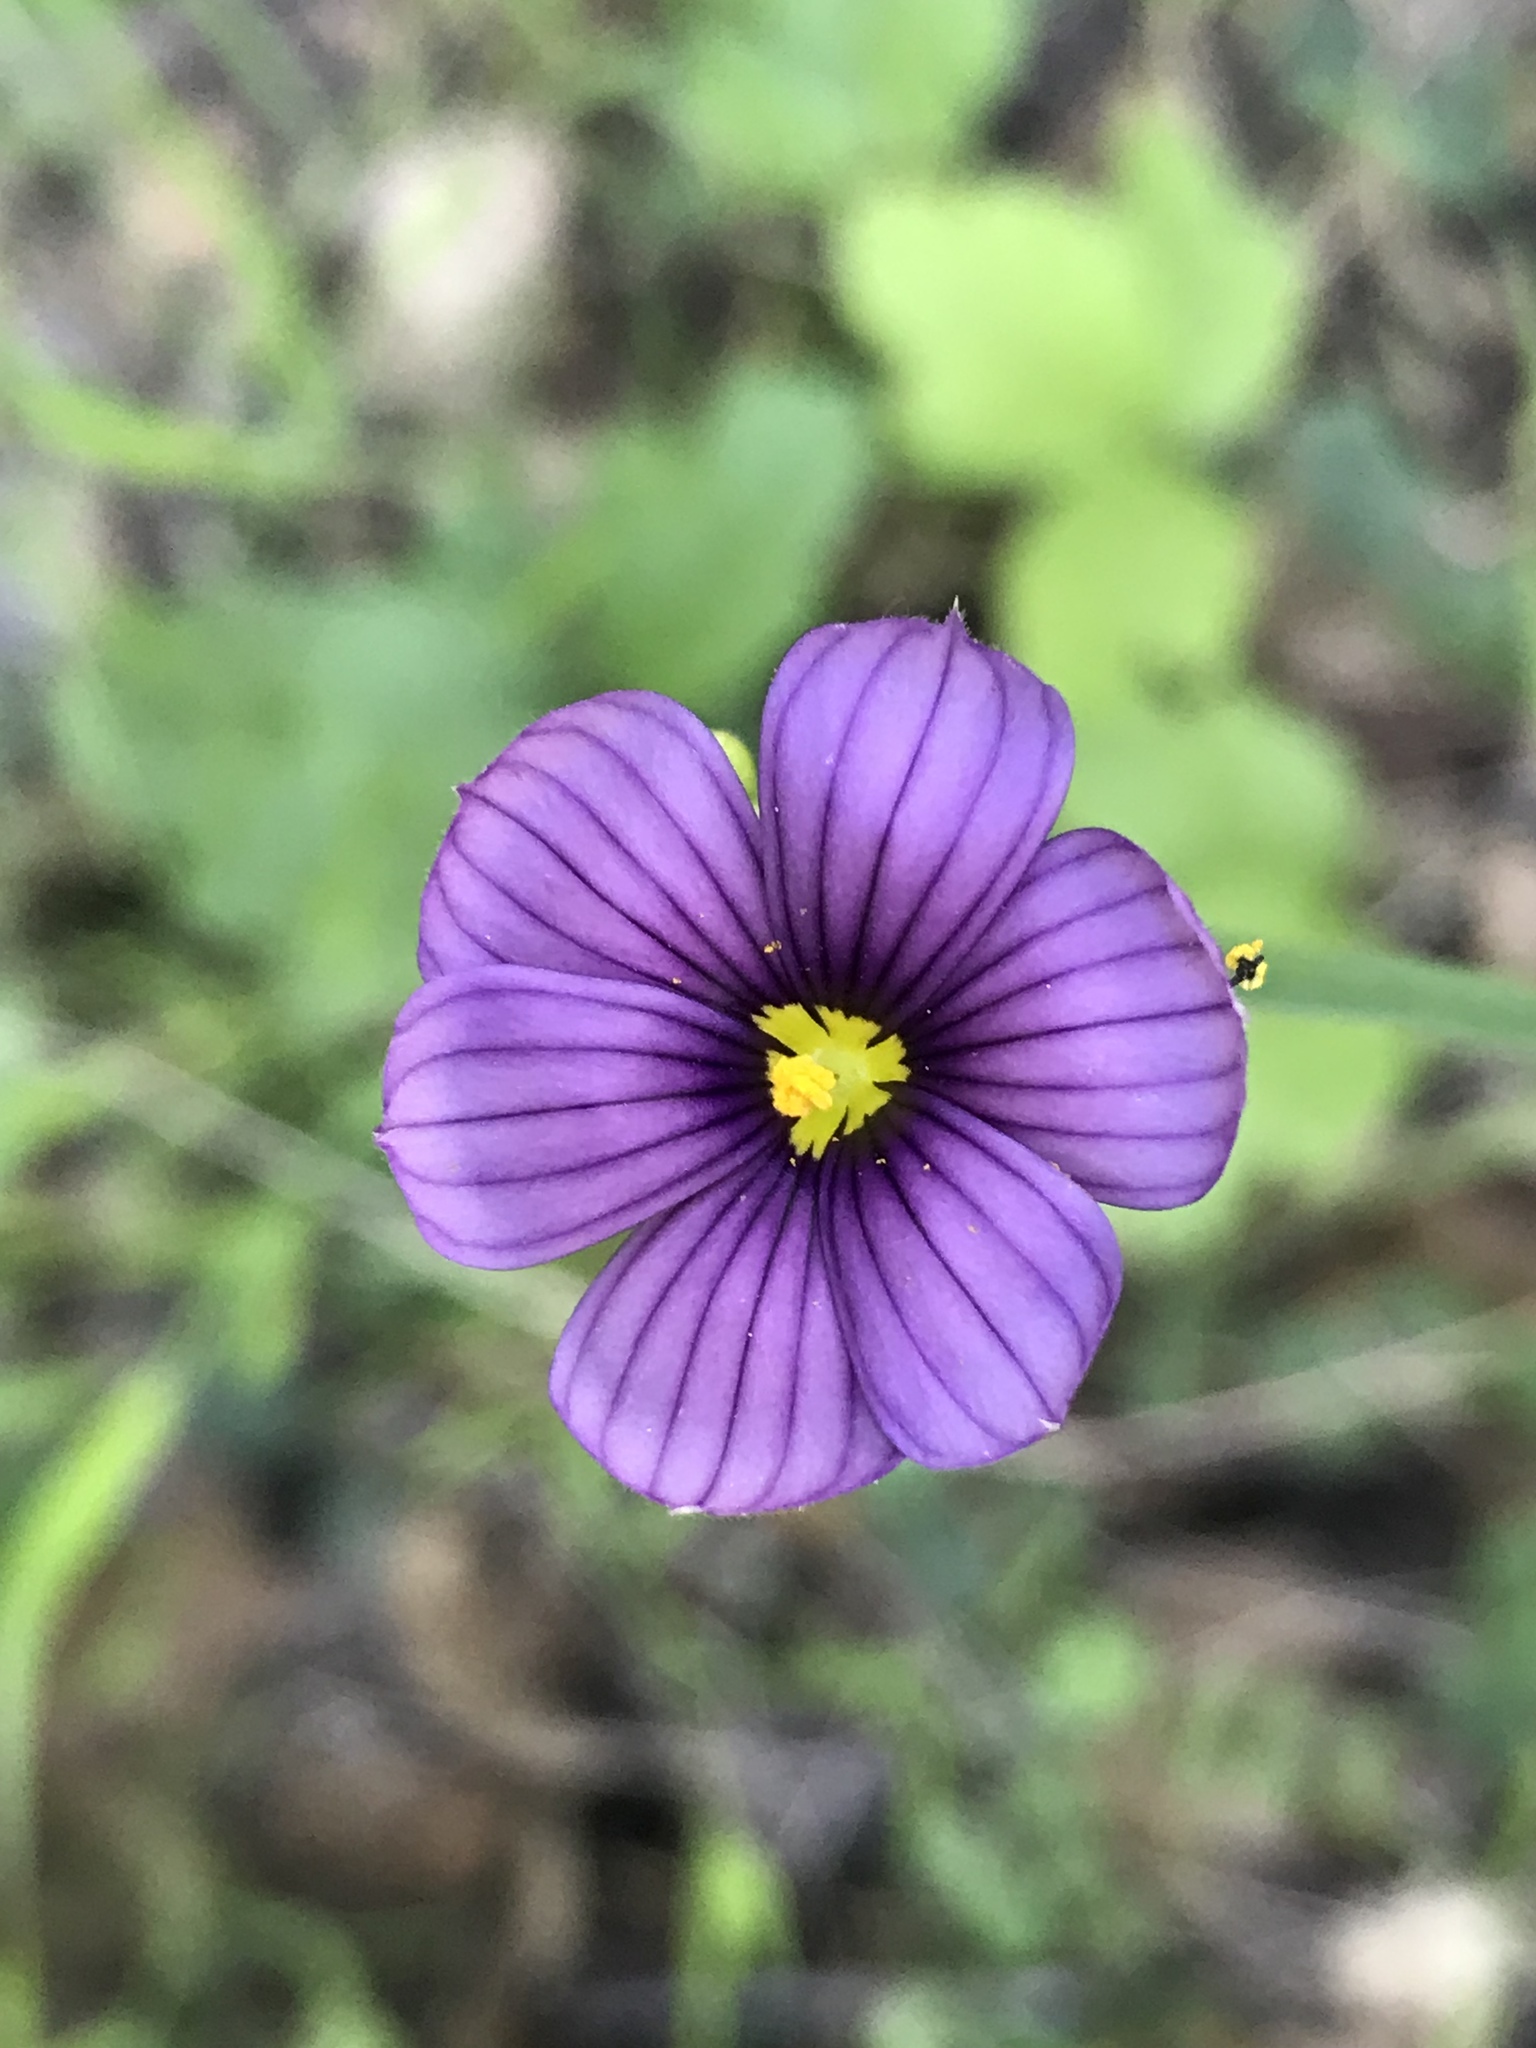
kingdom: Plantae
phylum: Tracheophyta
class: Liliopsida
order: Asparagales
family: Iridaceae
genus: Sisyrinchium
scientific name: Sisyrinchium bellum
